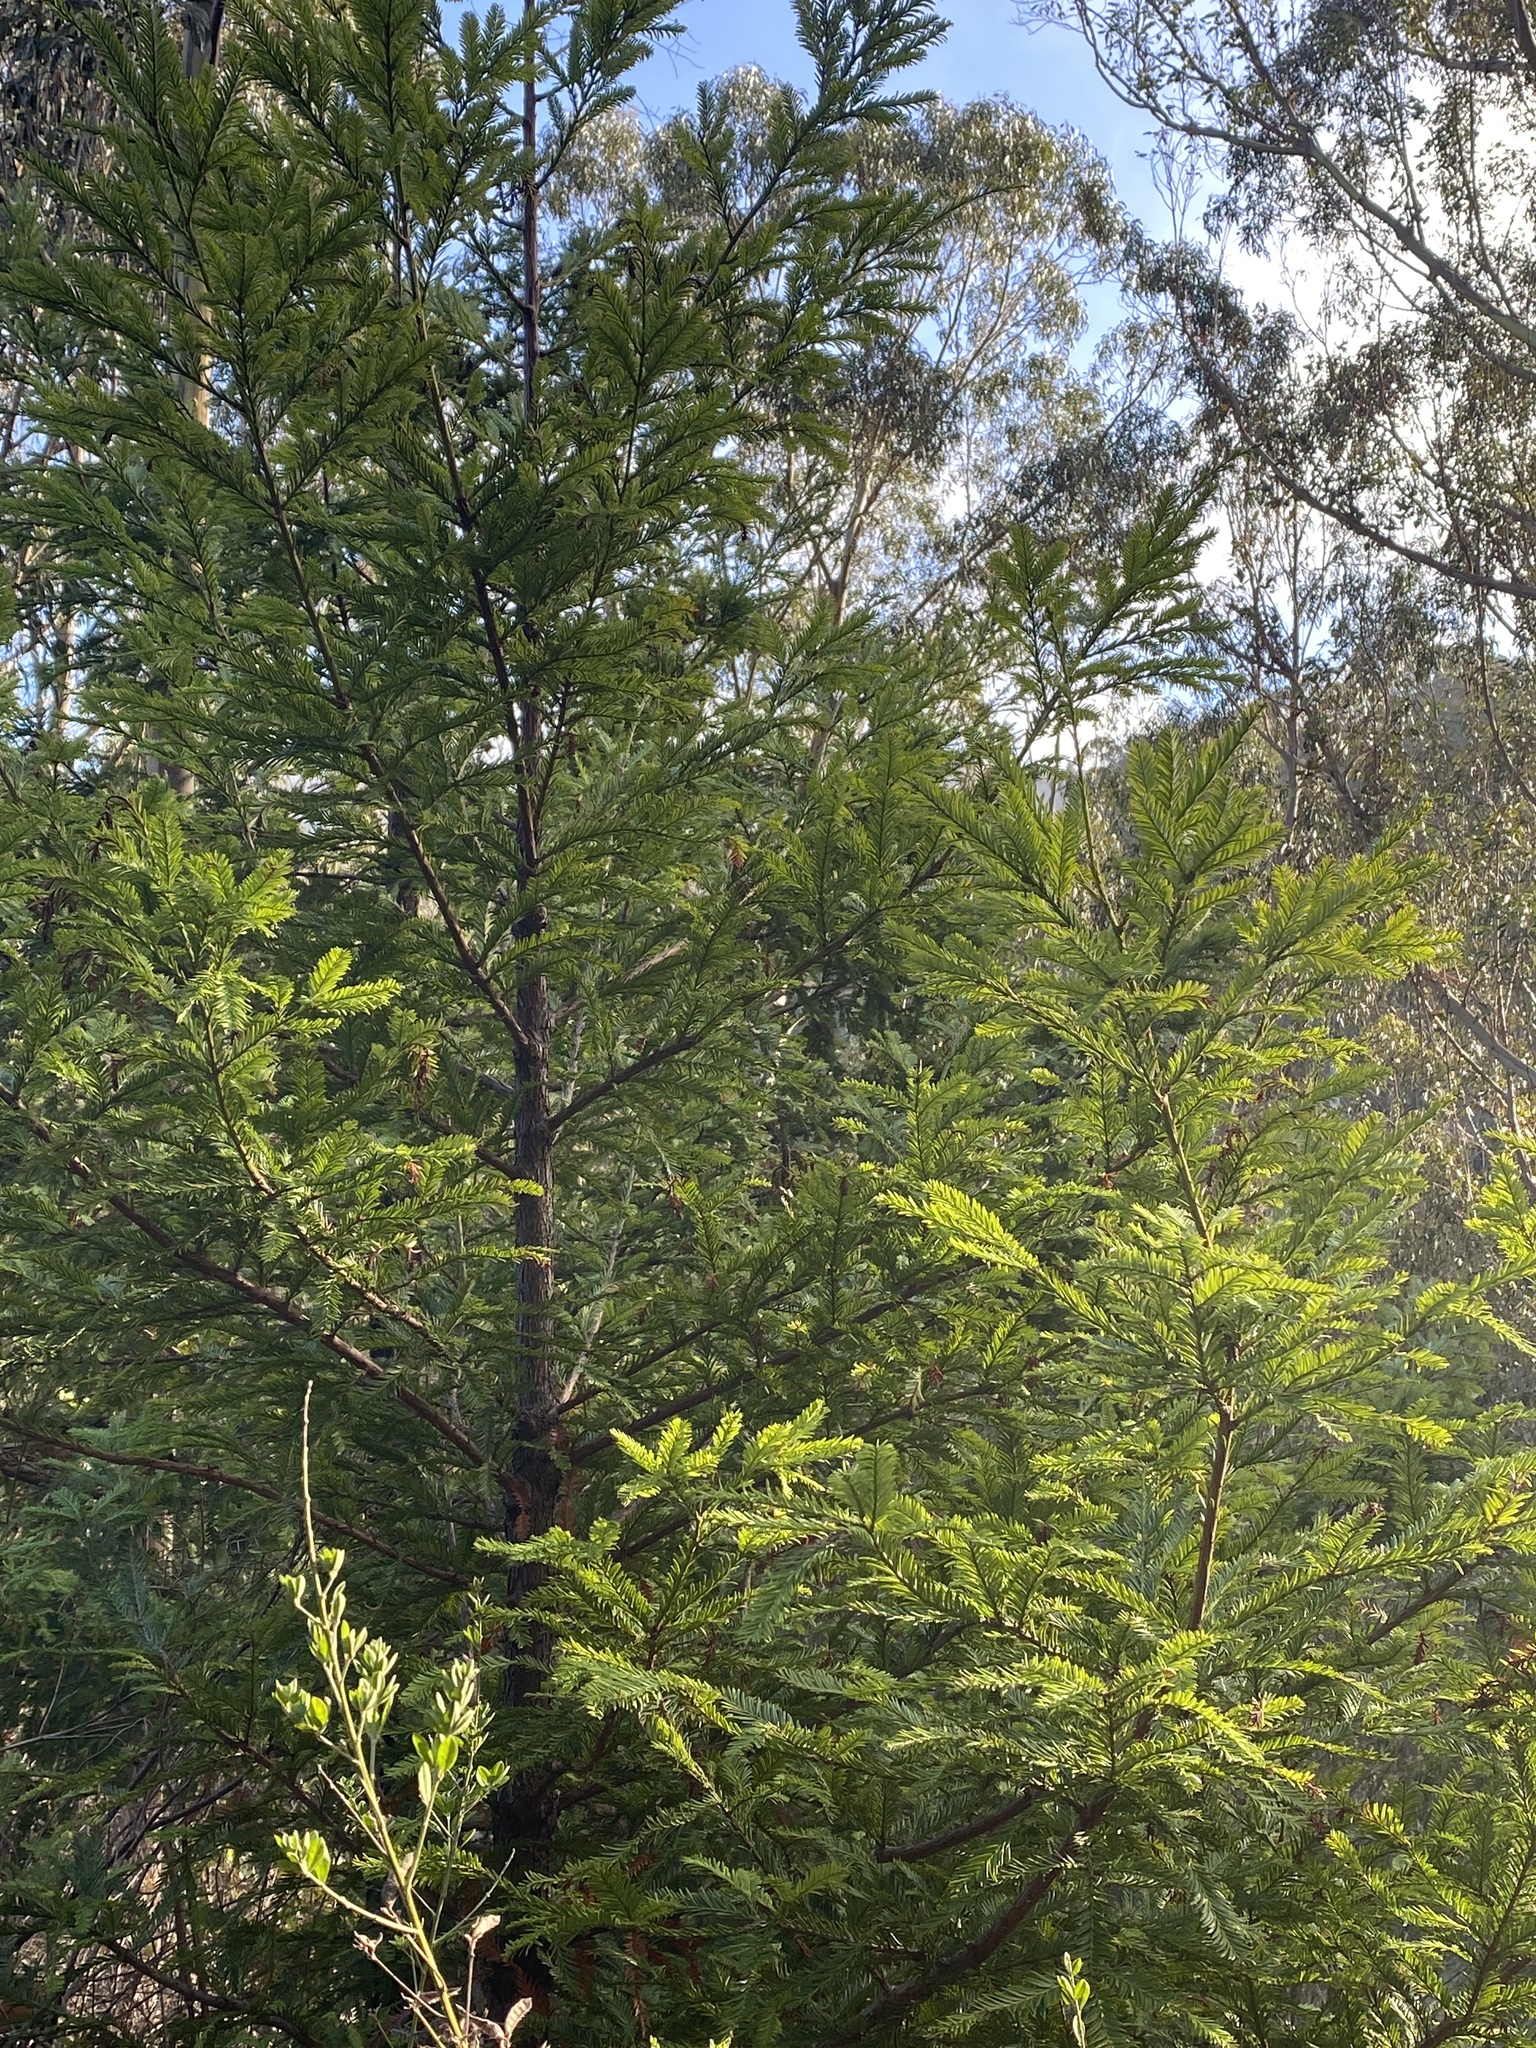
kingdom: Plantae
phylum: Tracheophyta
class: Pinopsida
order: Pinales
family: Cupressaceae
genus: Sequoia
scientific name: Sequoia sempervirens
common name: Coast redwood
